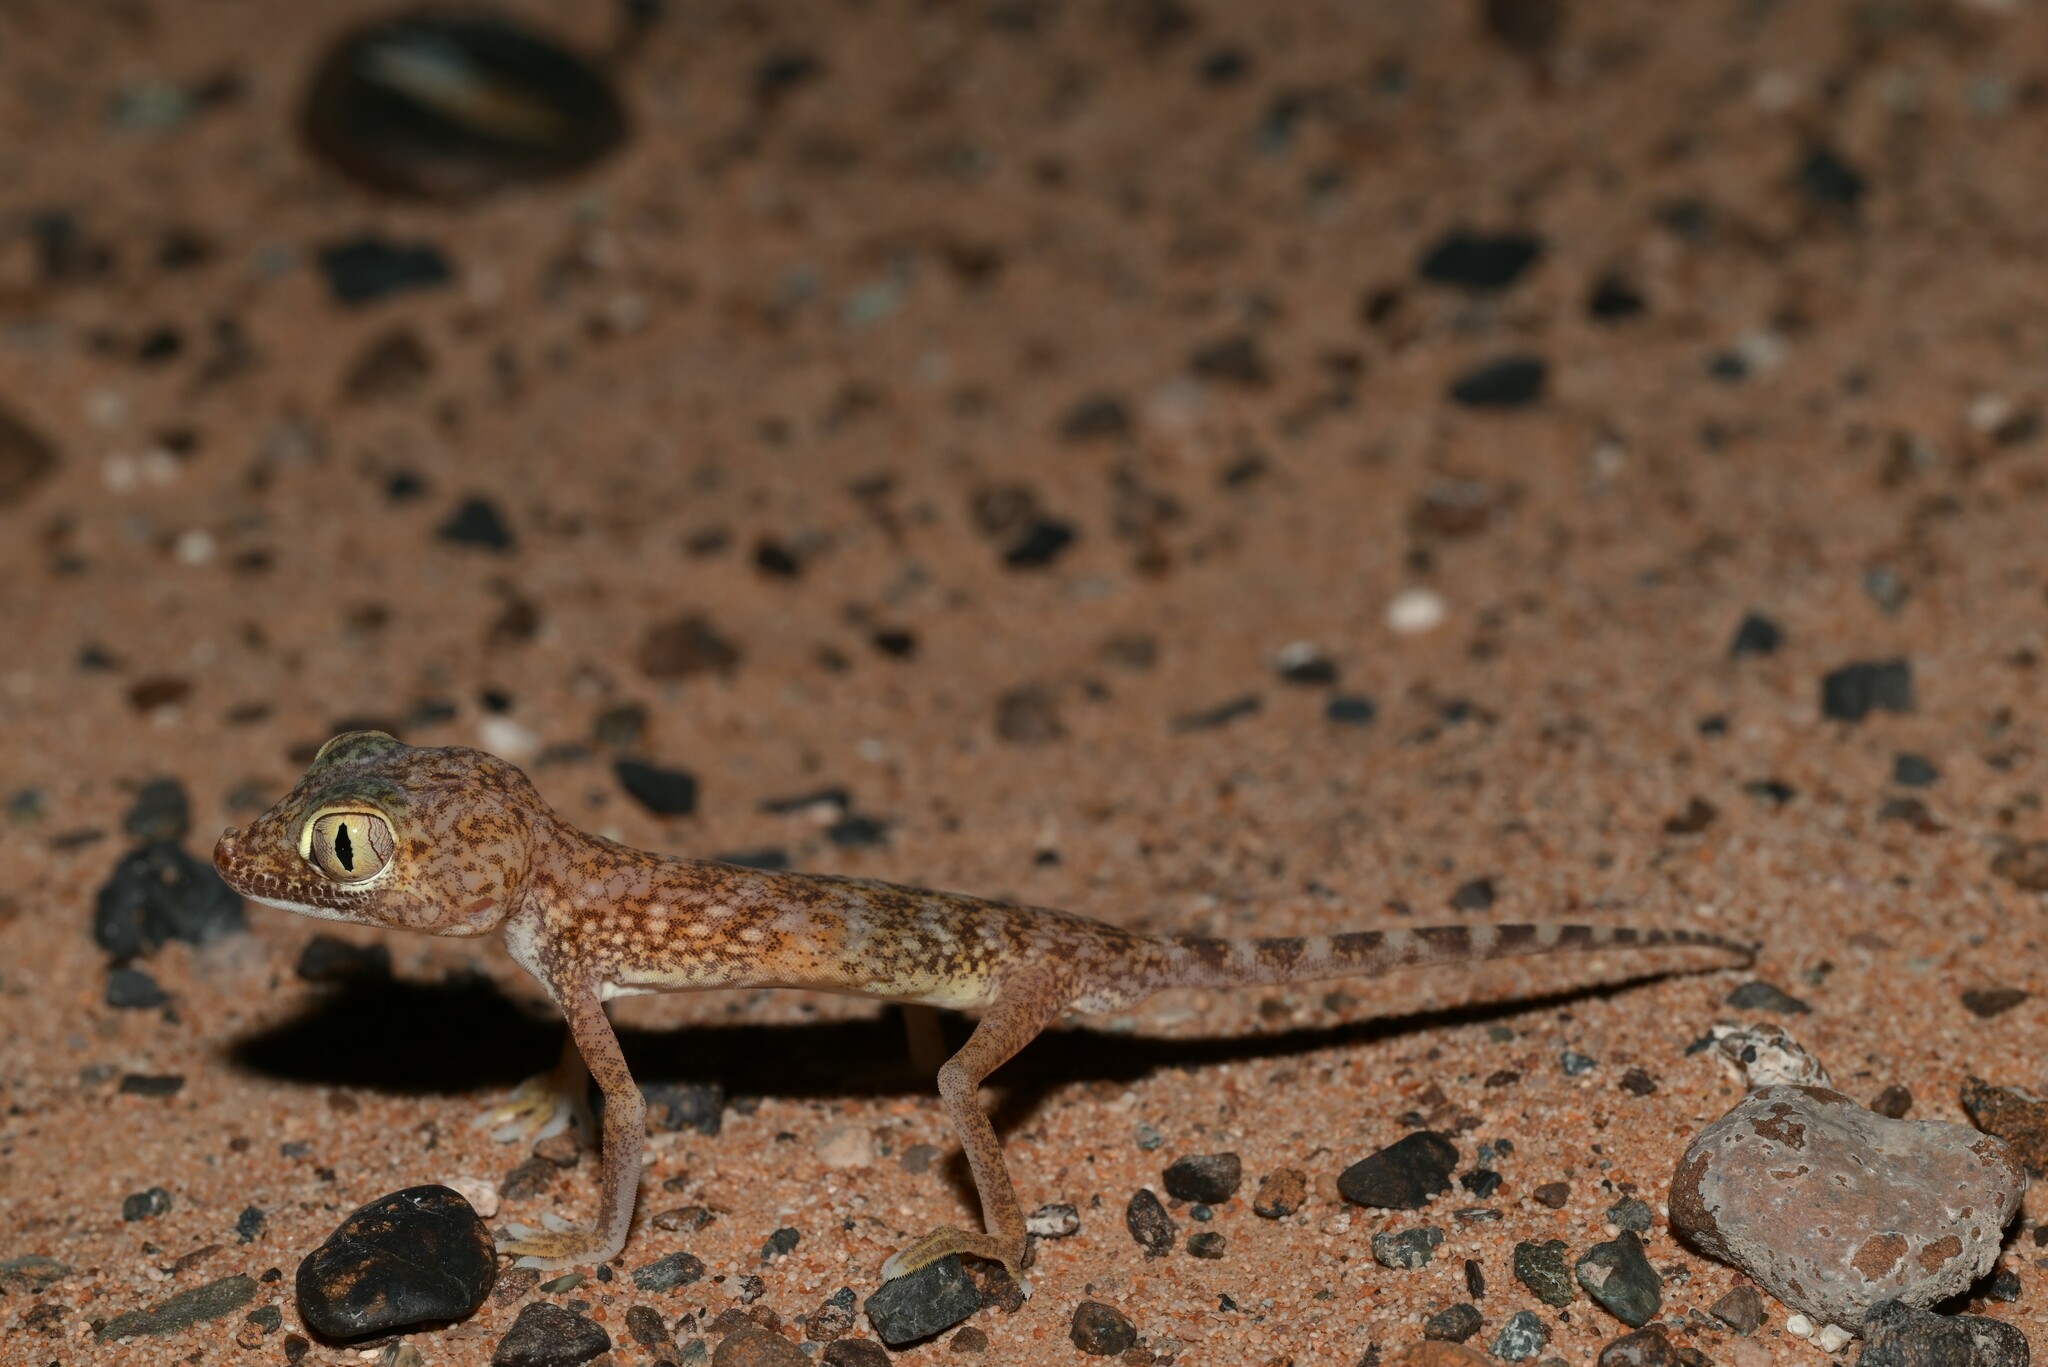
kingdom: Animalia
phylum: Chordata
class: Squamata
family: Gekkonidae
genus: Stenodactylus
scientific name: Stenodactylus doriae
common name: Dune sand gecko
